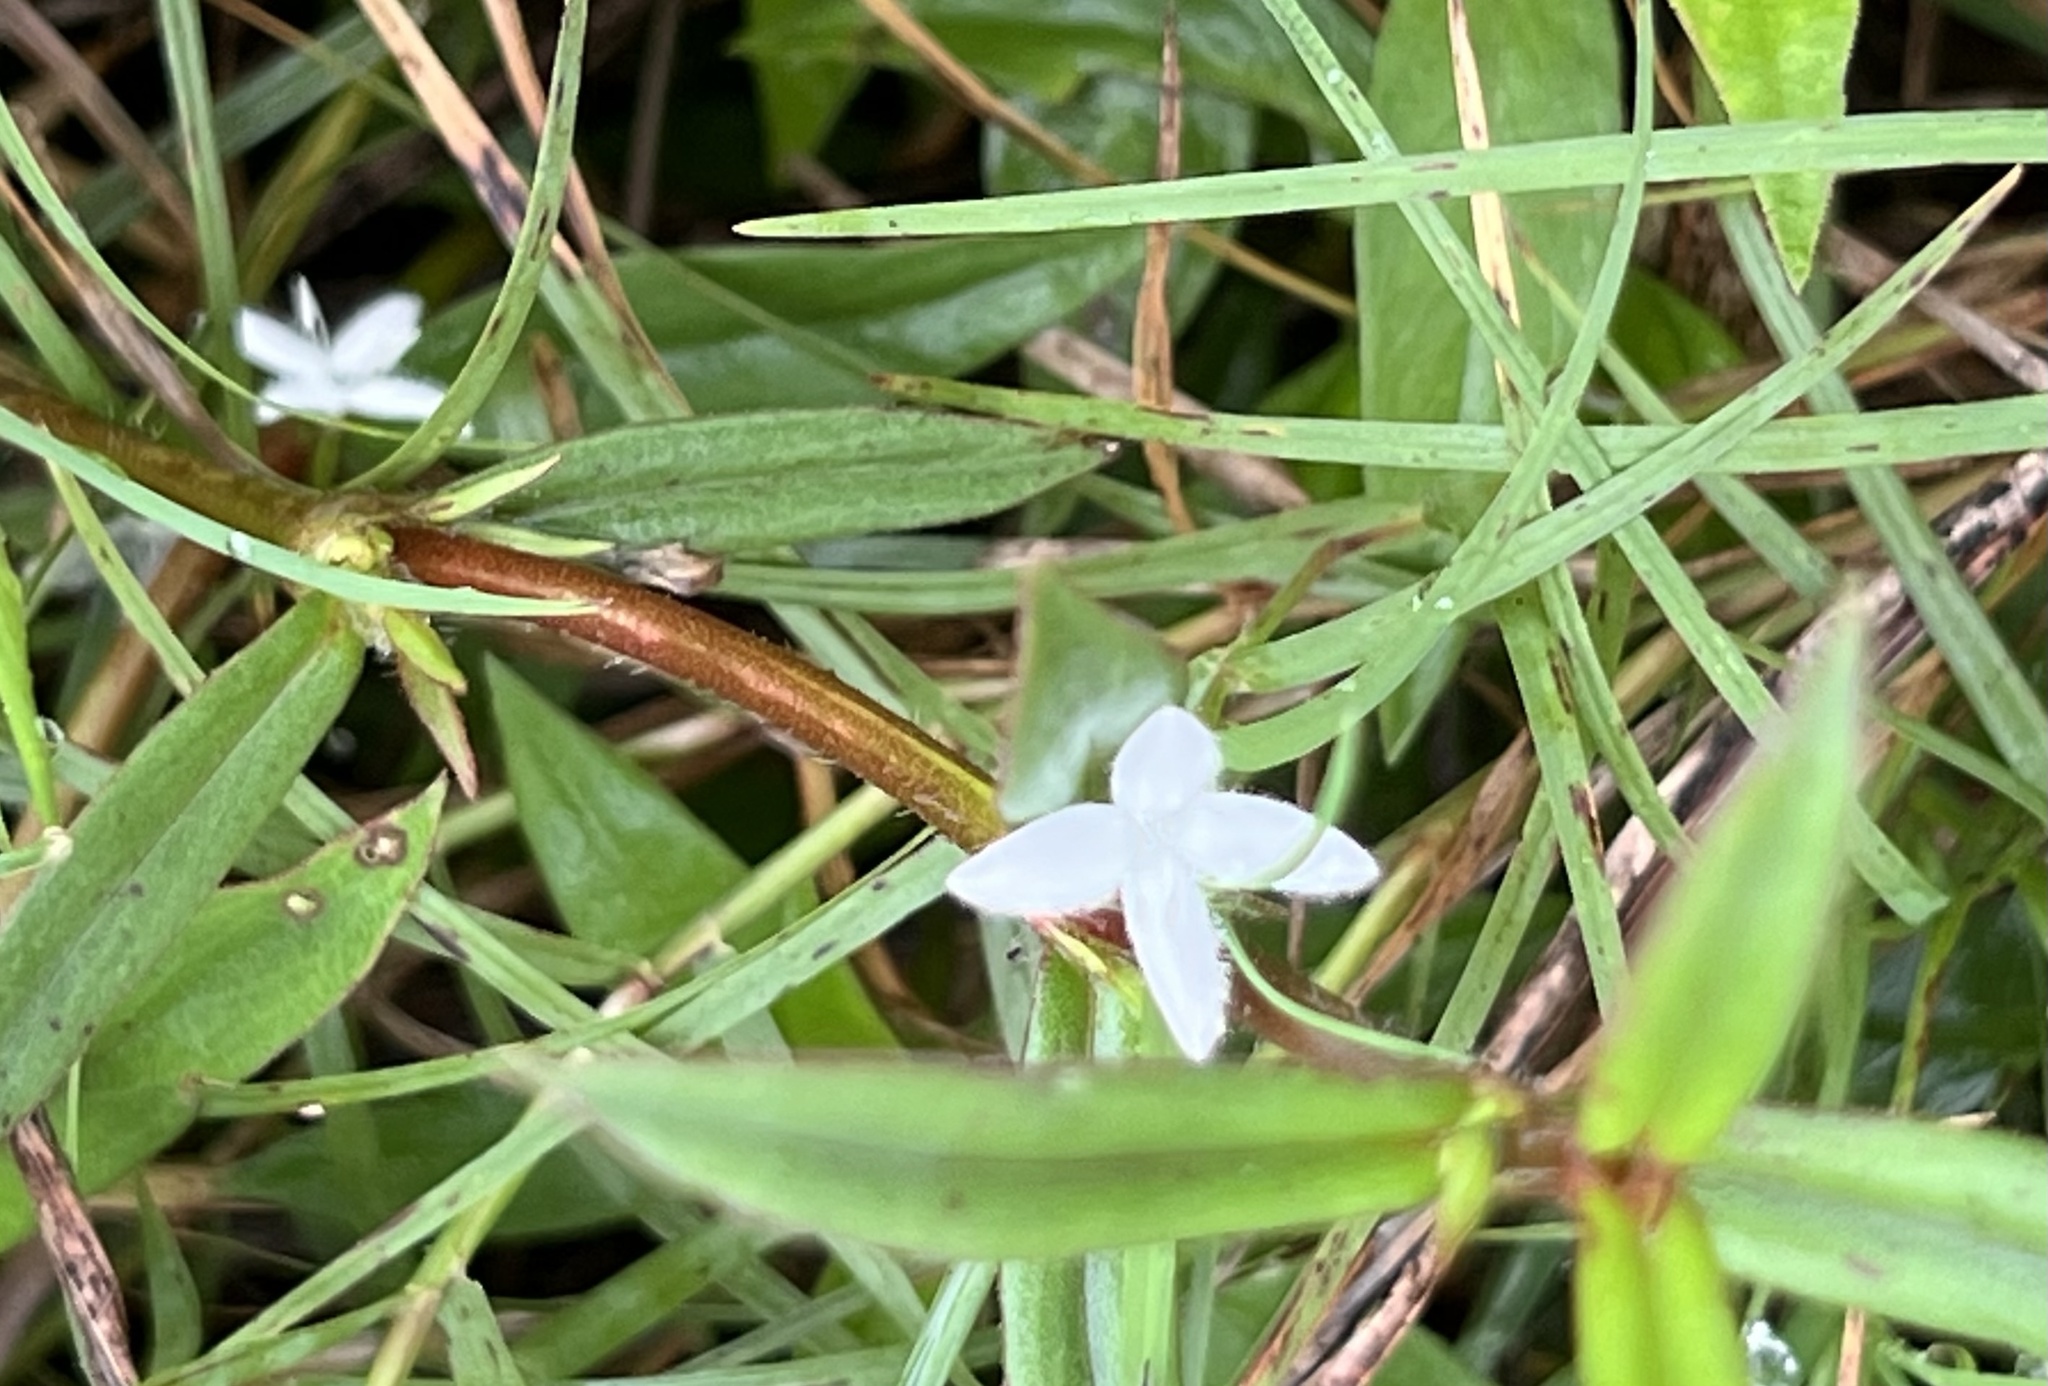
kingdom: Plantae
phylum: Tracheophyta
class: Magnoliopsida
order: Gentianales
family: Rubiaceae
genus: Diodia
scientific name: Diodia virginiana
